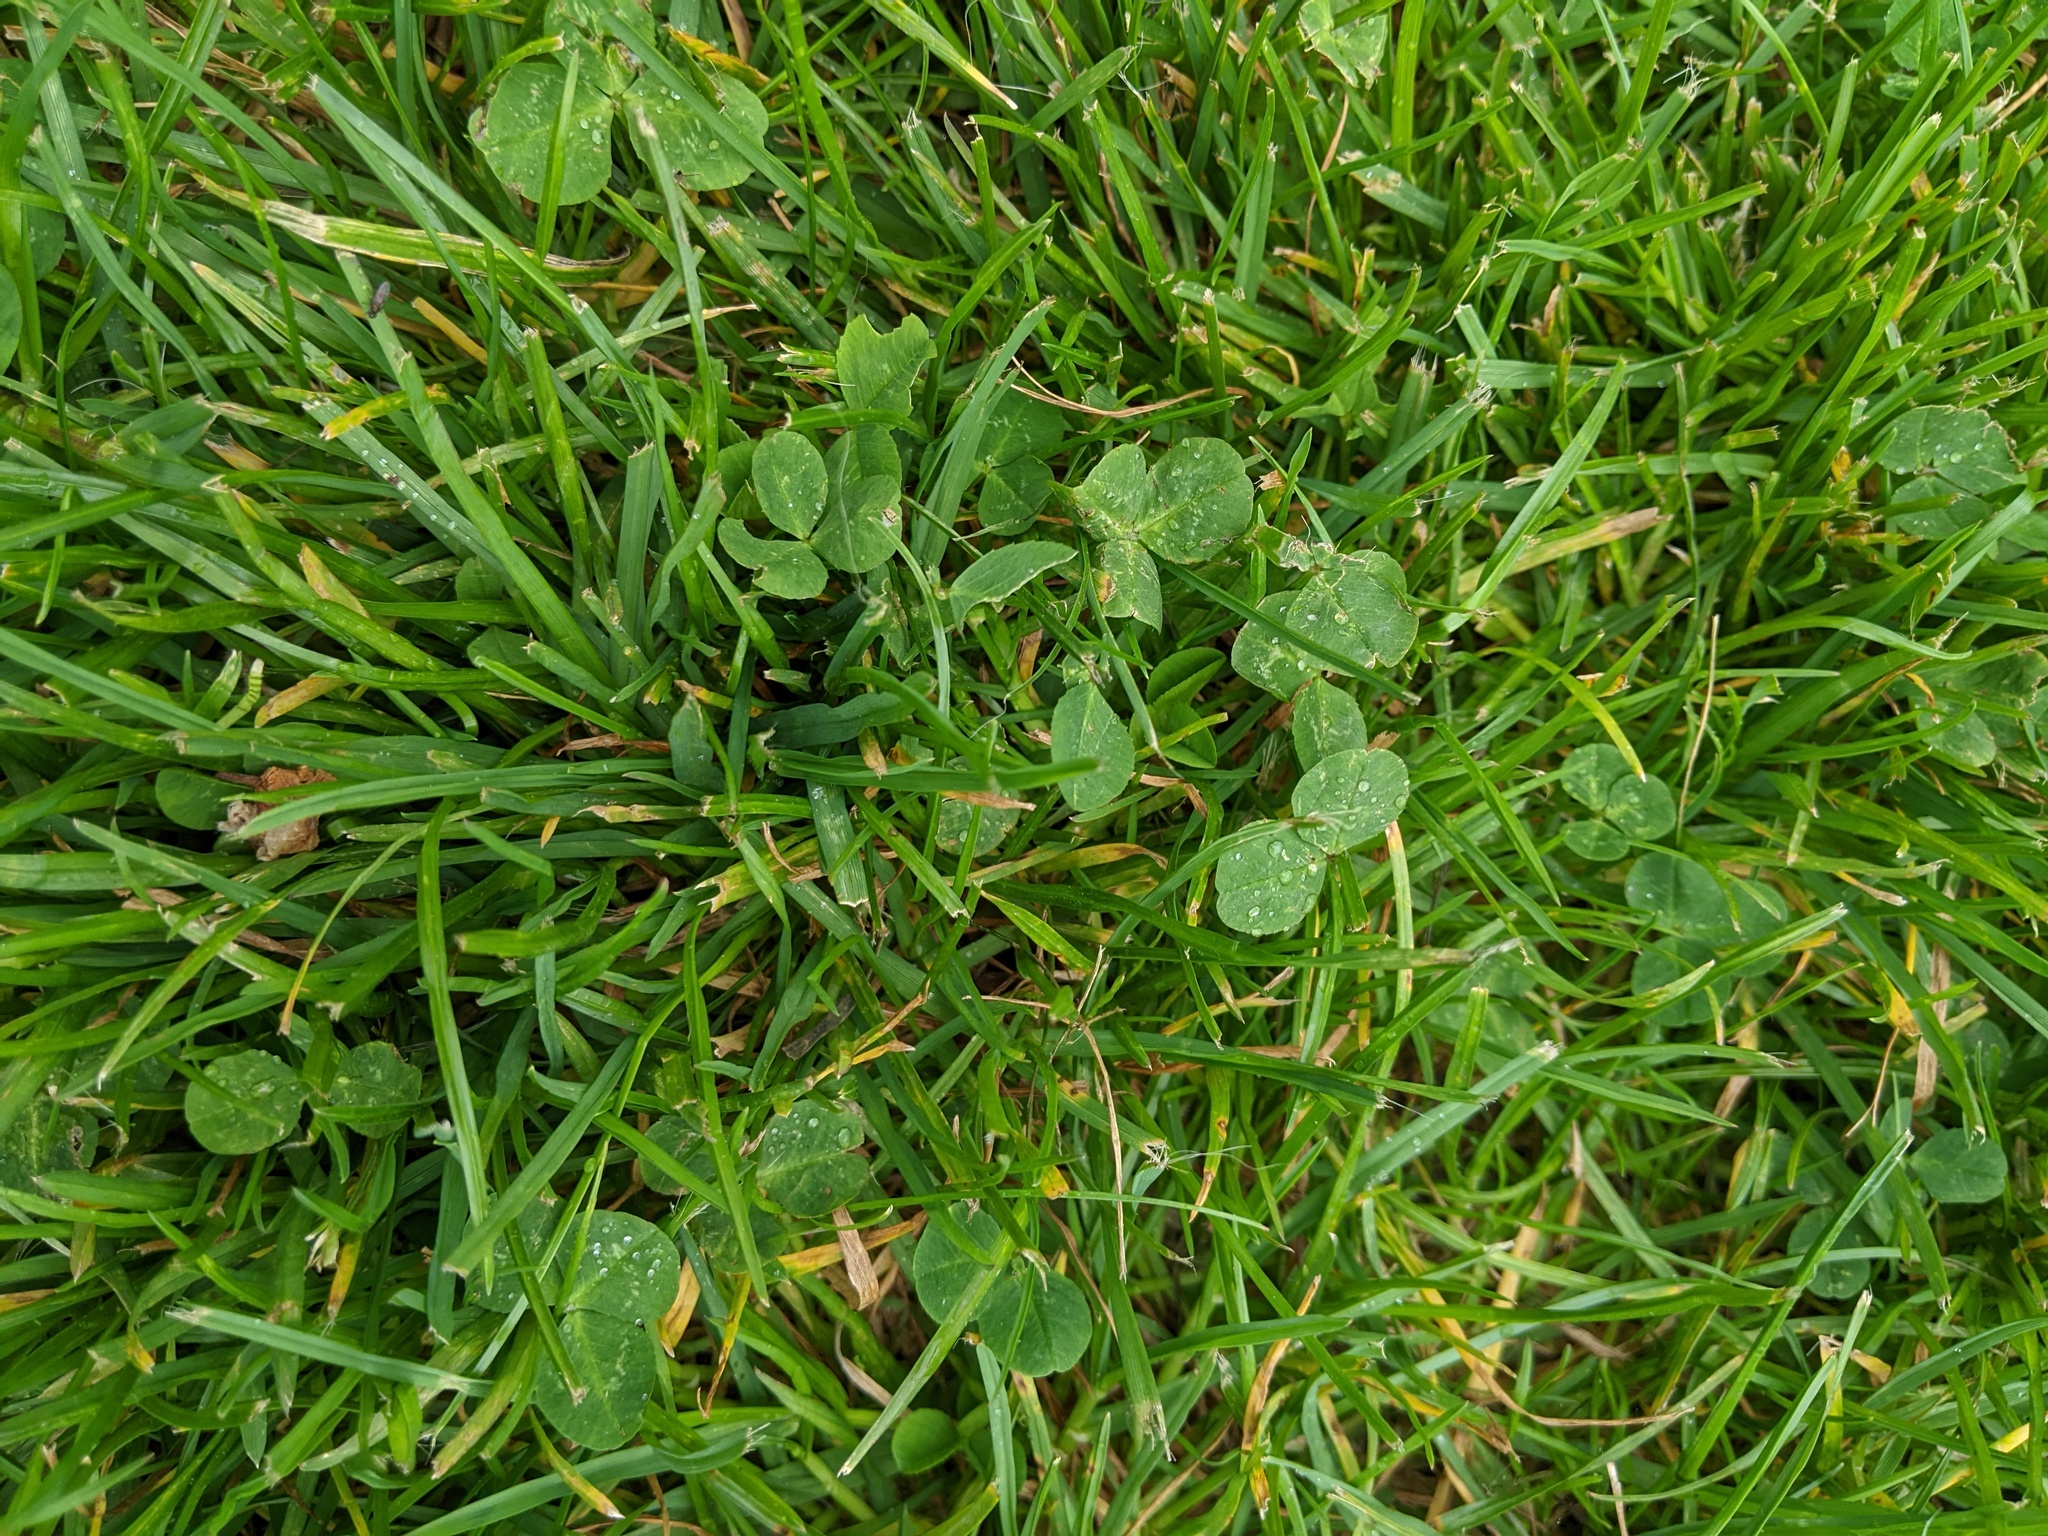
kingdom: Plantae
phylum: Tracheophyta
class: Magnoliopsida
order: Fabales
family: Fabaceae
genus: Trifolium
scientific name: Trifolium repens
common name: White clover
